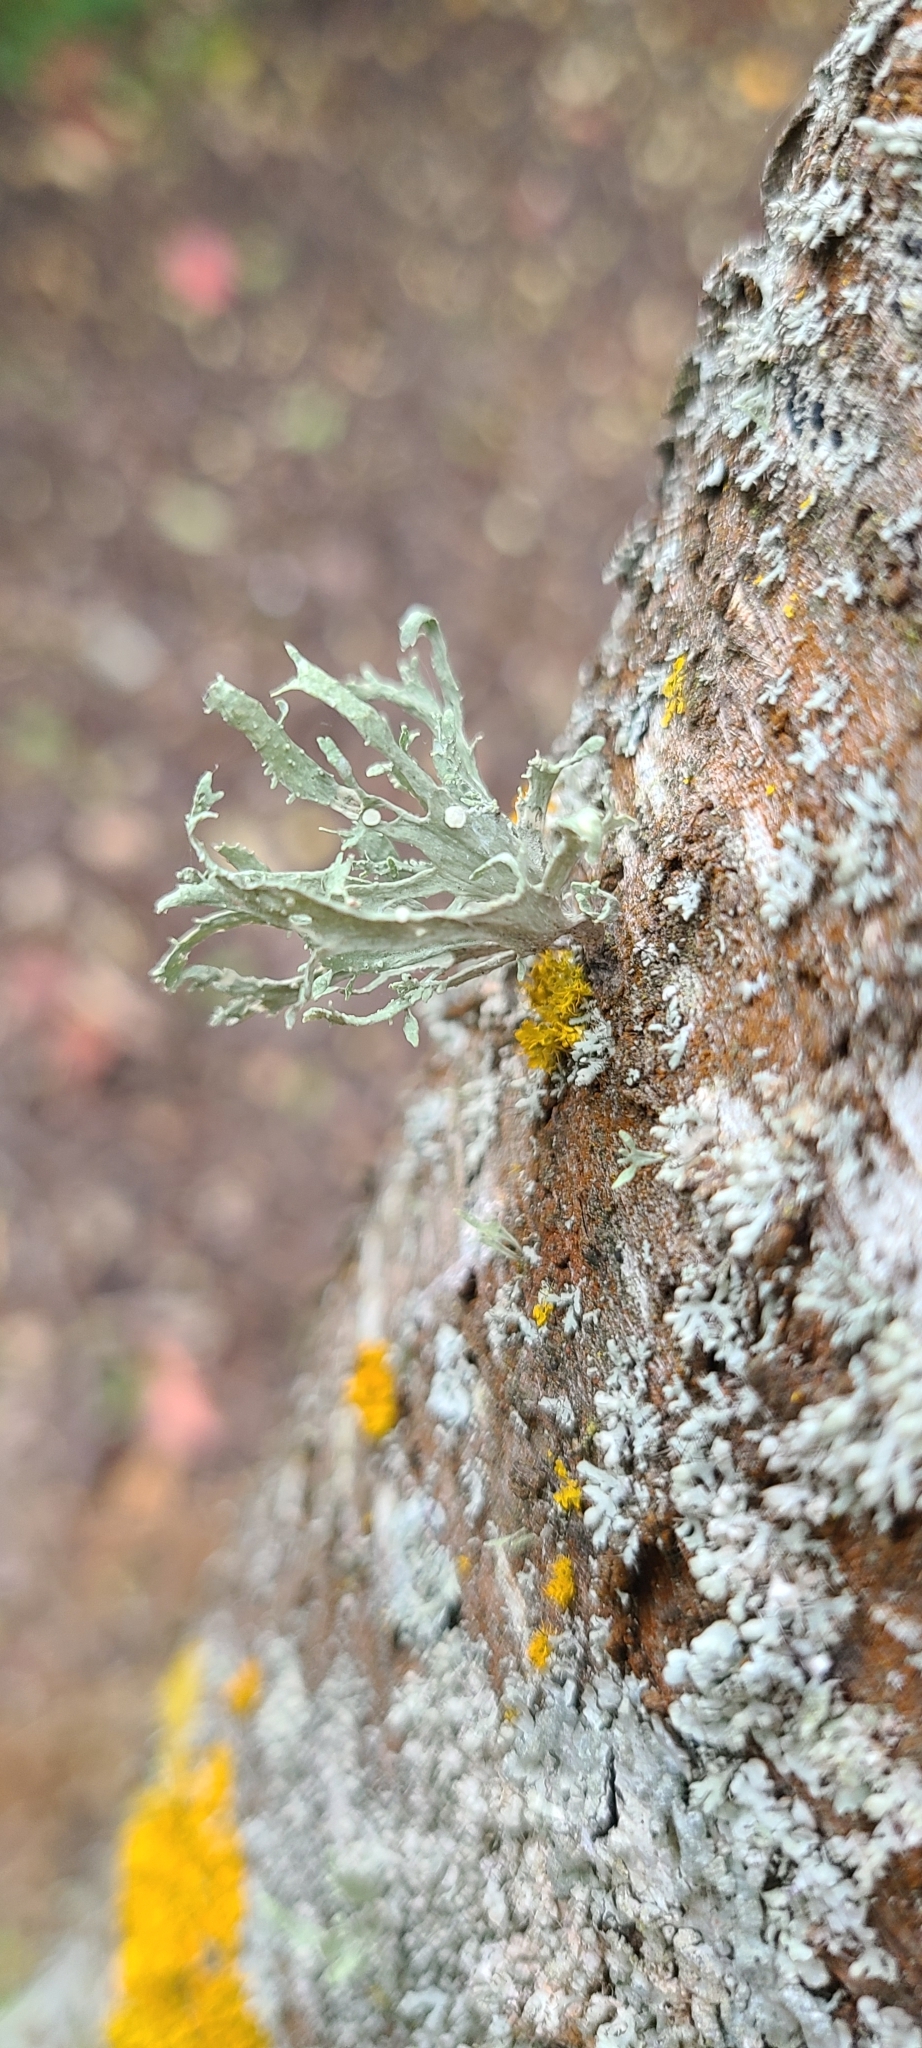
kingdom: Fungi
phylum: Ascomycota
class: Lecanoromycetes
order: Lecanorales
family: Ramalinaceae
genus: Ramalina
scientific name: Ramalina celastri
